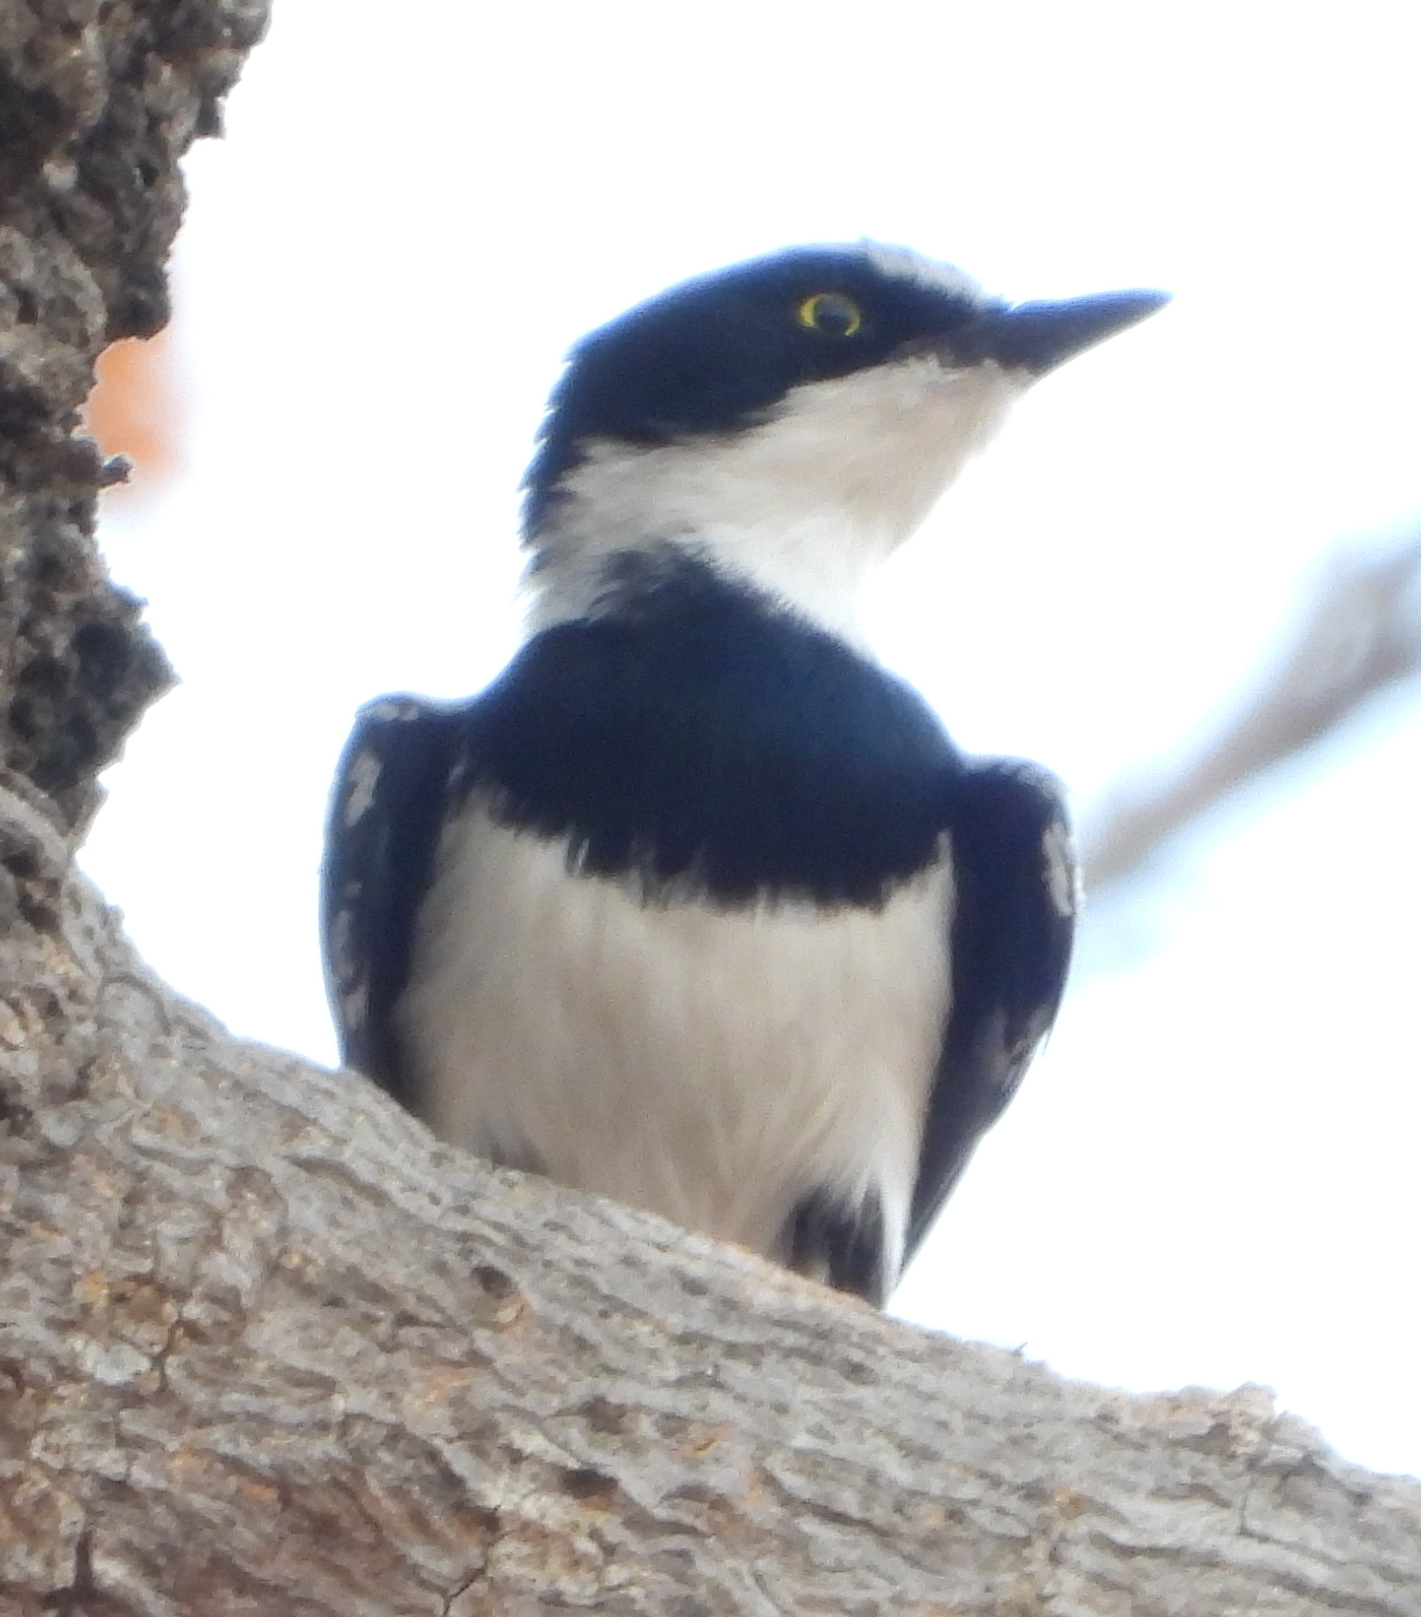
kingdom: Animalia
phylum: Chordata
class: Aves
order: Passeriformes
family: Platysteiridae
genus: Batis
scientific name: Batis molitor
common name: Chinspot batis
